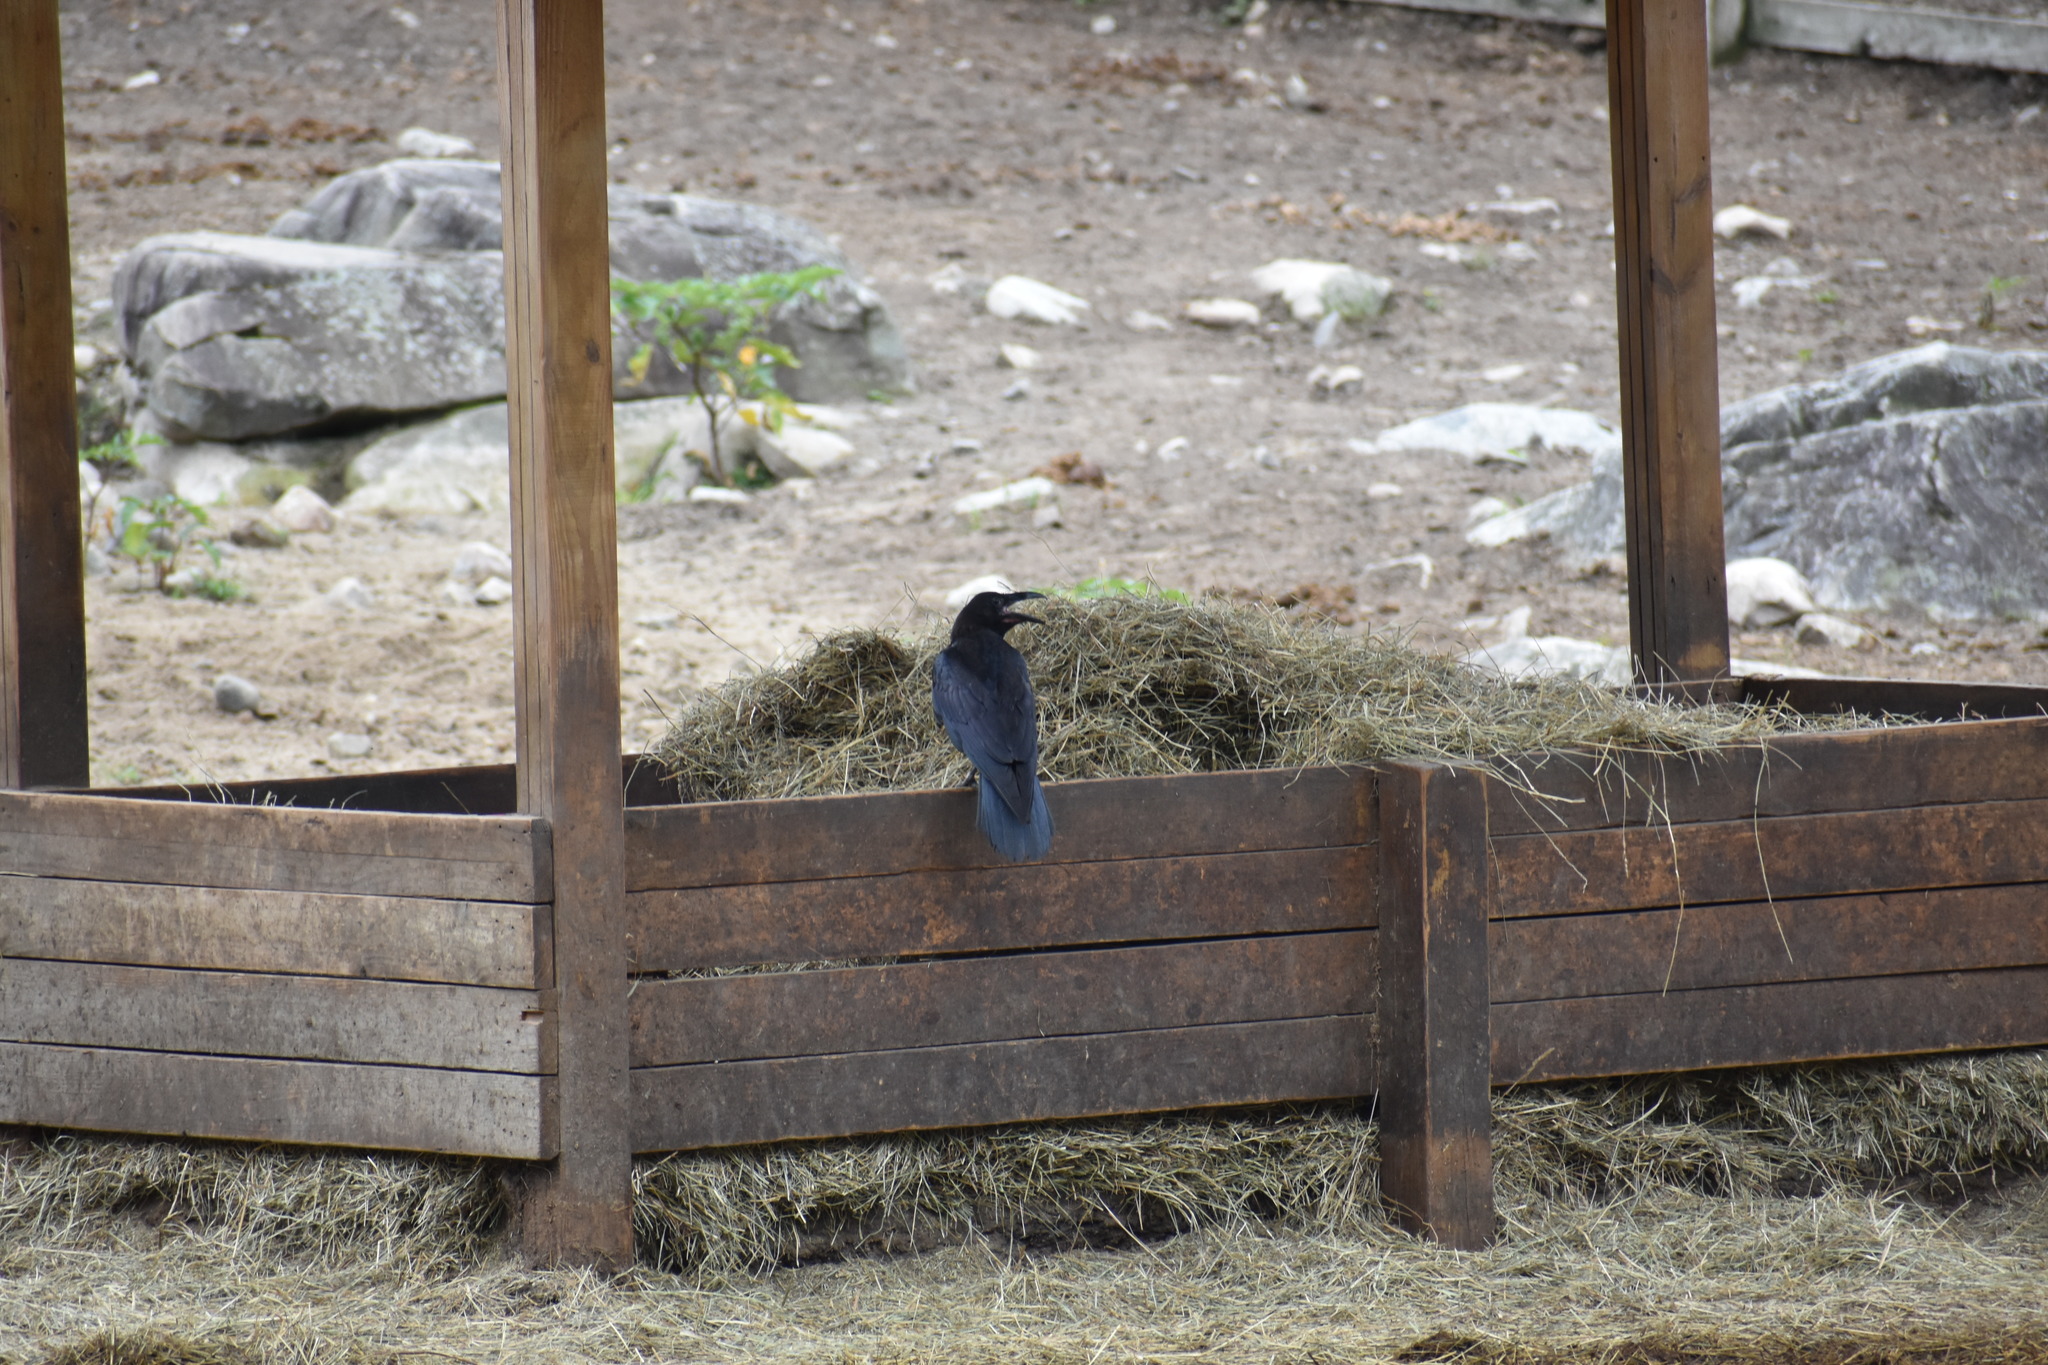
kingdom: Animalia
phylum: Chordata
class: Aves
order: Passeriformes
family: Corvidae
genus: Corvus
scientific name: Corvus corax
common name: Common raven
